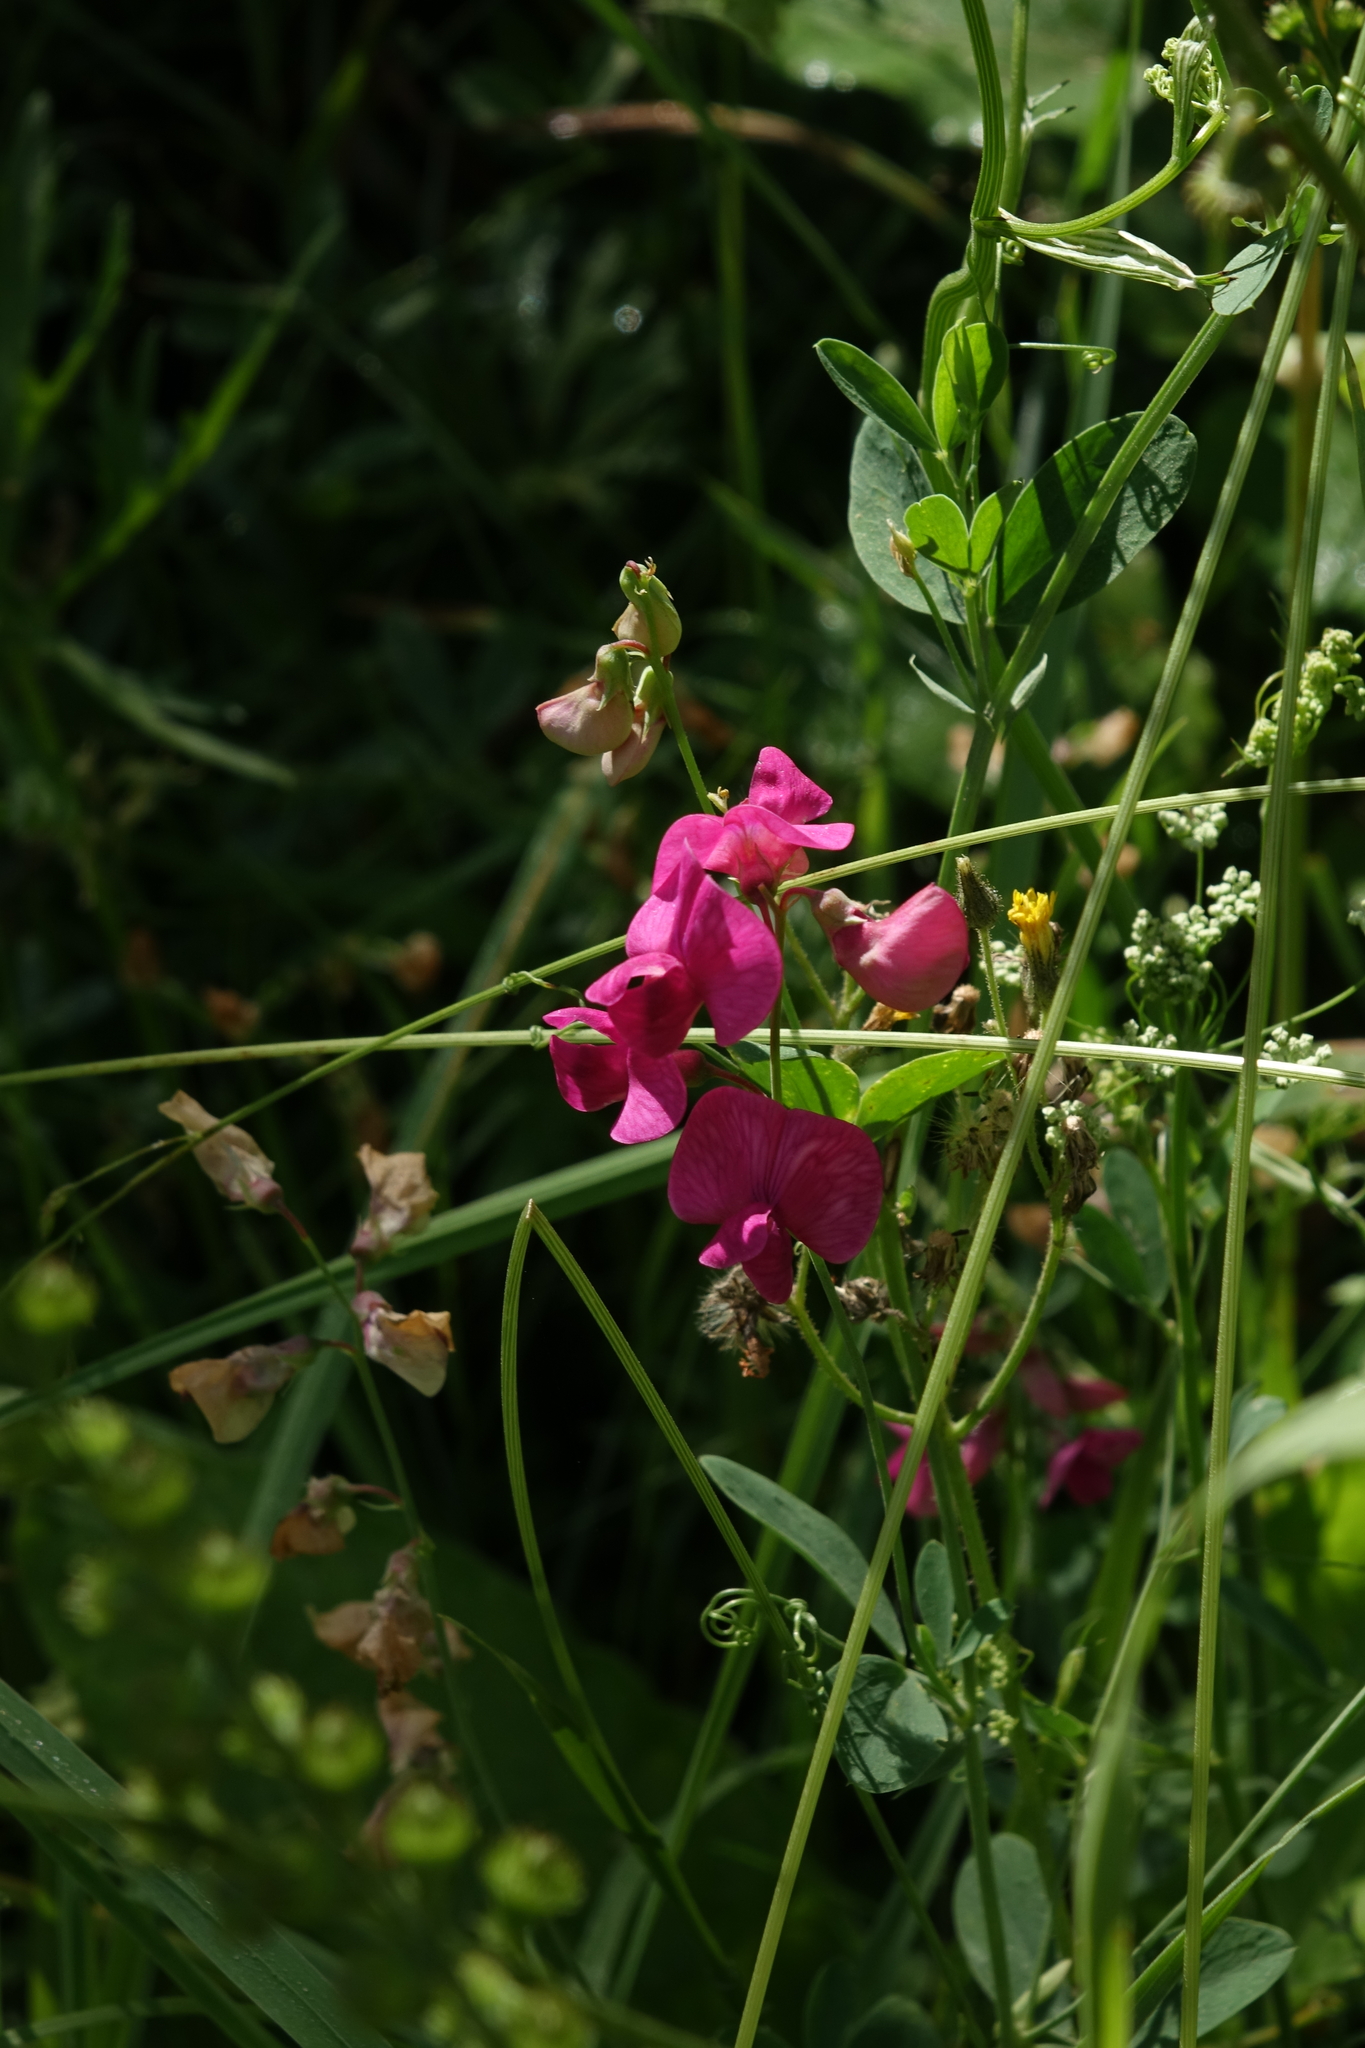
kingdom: Plantae
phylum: Tracheophyta
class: Magnoliopsida
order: Fabales
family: Fabaceae
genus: Lathyrus
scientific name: Lathyrus tuberosus
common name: Tuberous pea
